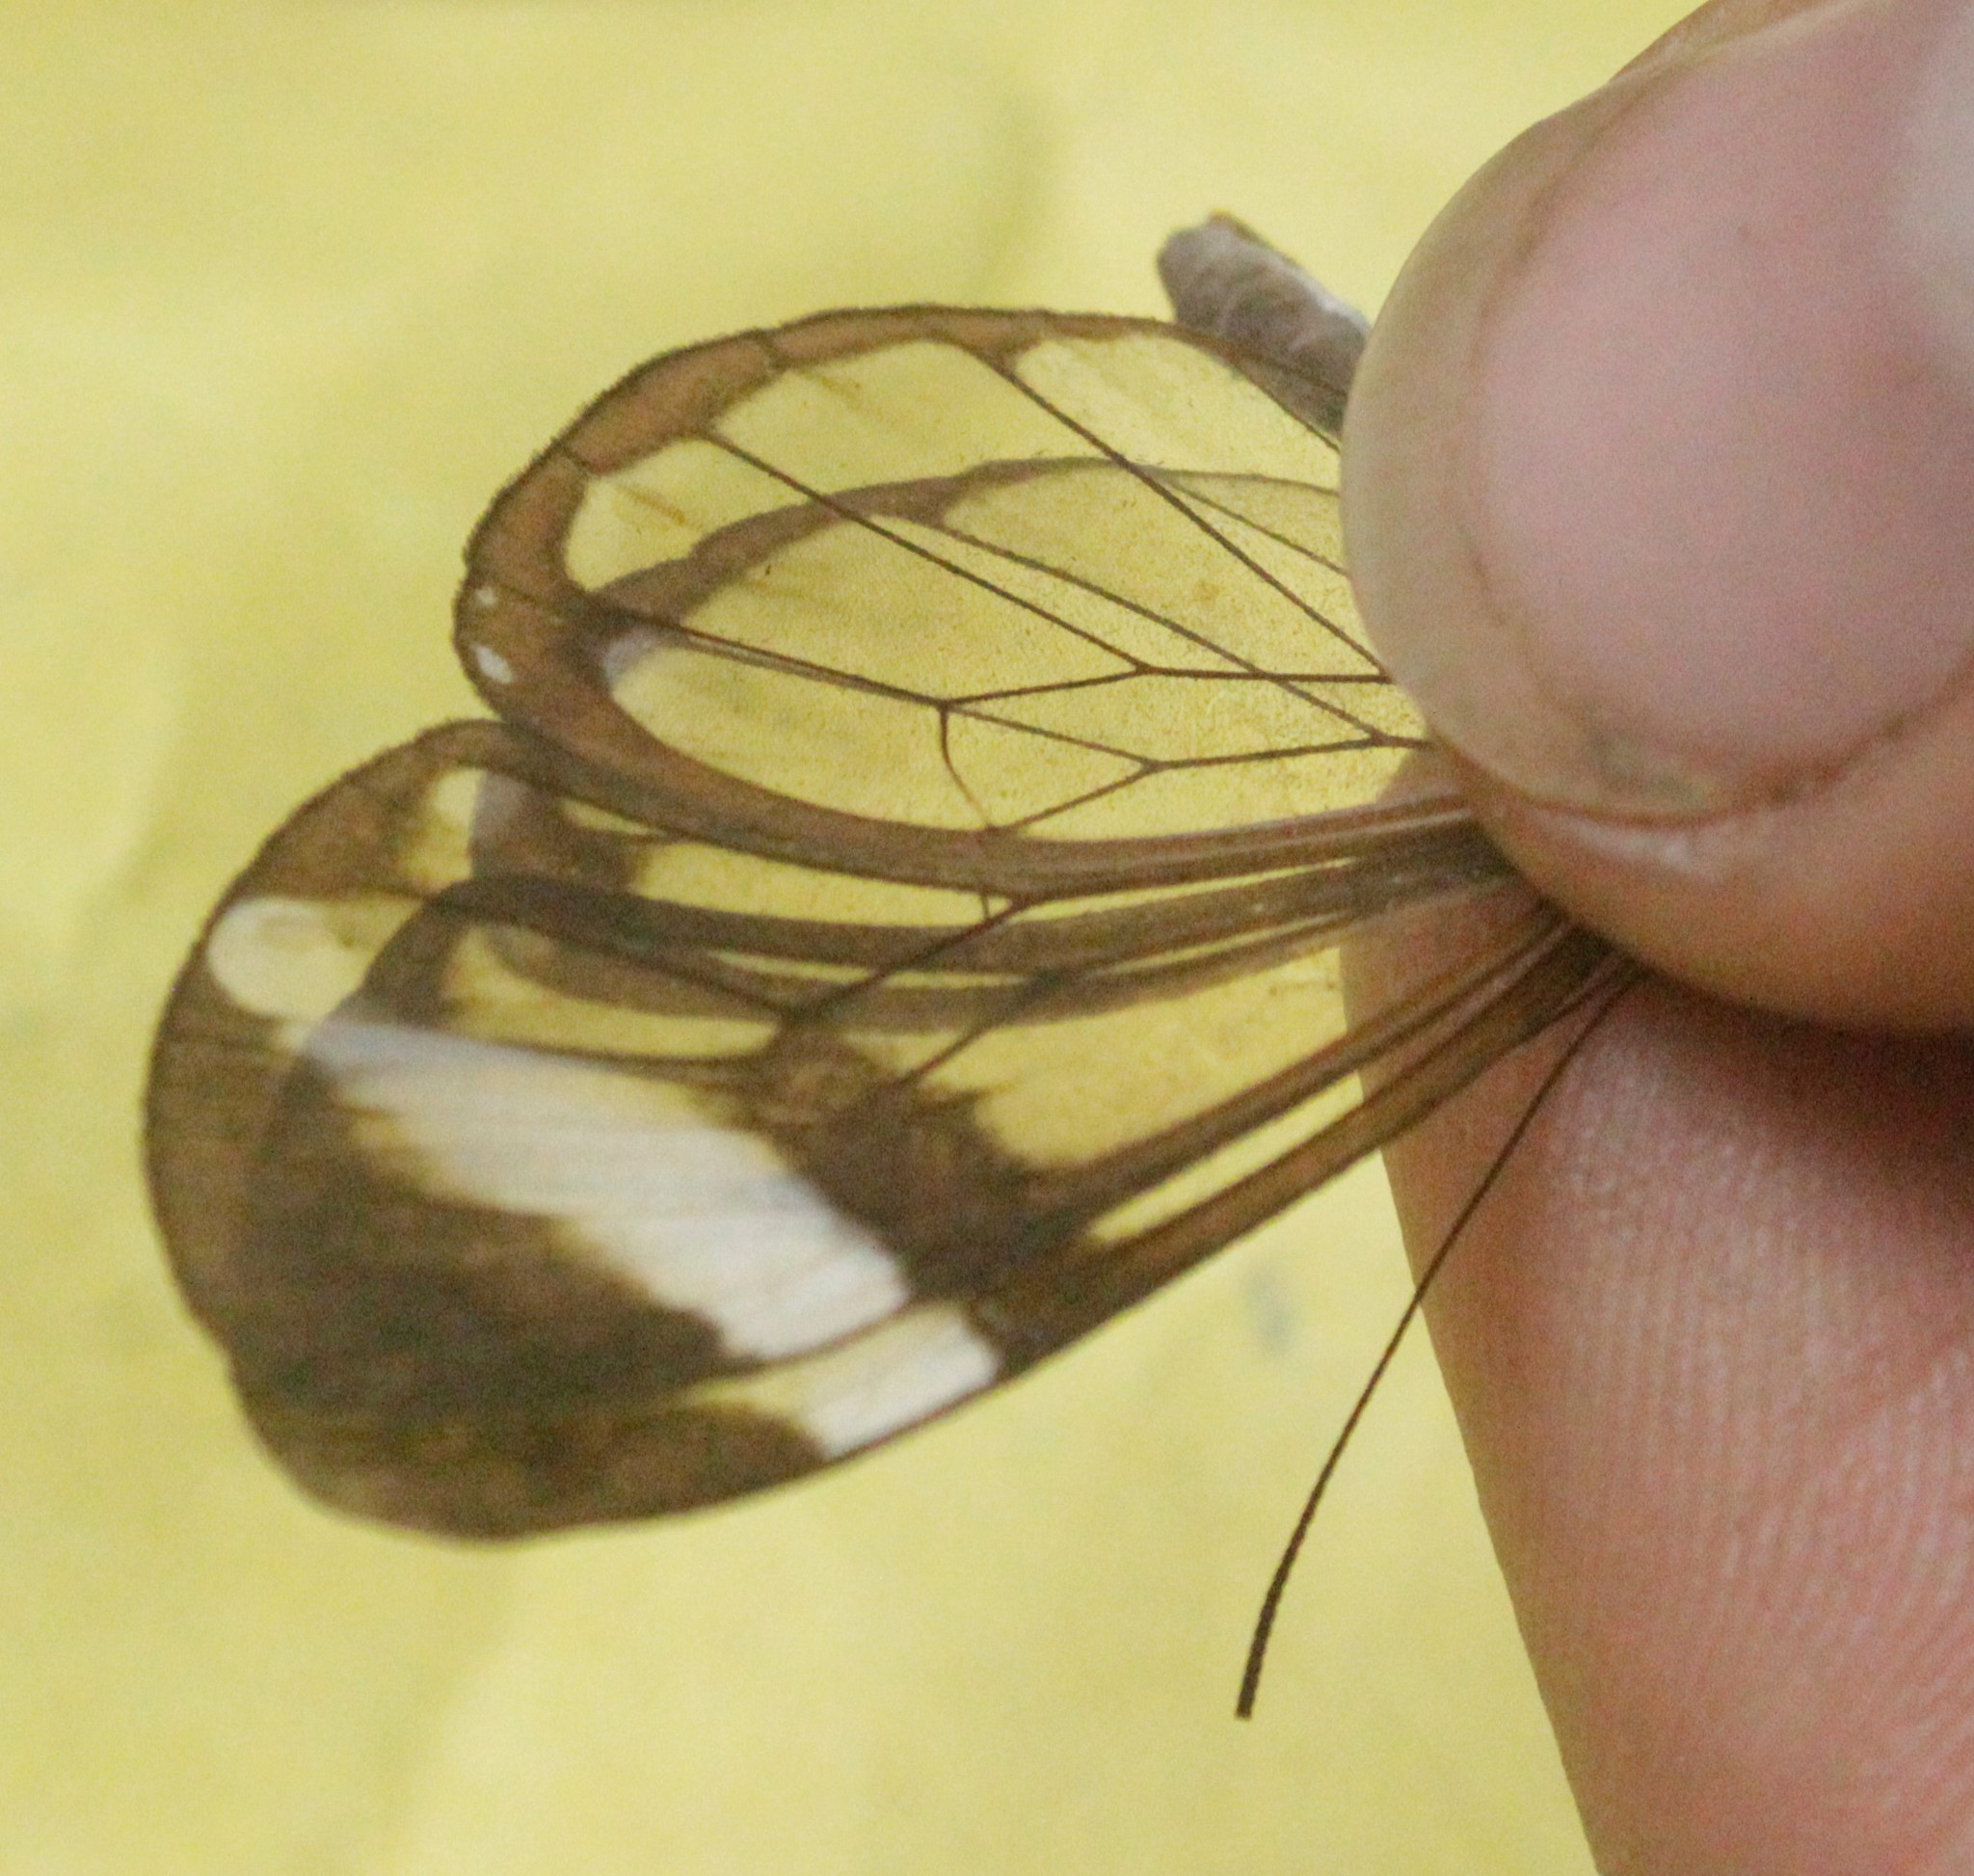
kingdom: Animalia
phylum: Arthropoda
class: Insecta
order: Lepidoptera
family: Nymphalidae
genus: Greta
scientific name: Greta morgane
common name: Thick-tipped greta
